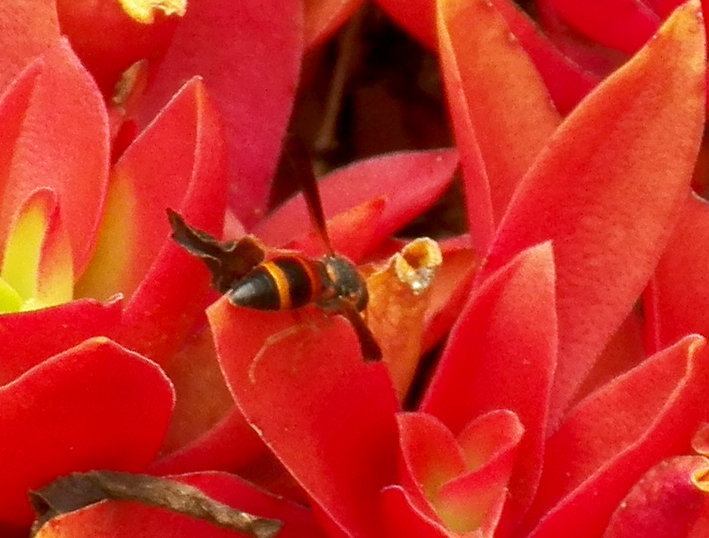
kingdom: Animalia
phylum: Arthropoda
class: Insecta
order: Hymenoptera
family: Eumenidae
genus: Pachodynerus
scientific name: Pachodynerus erynnis
